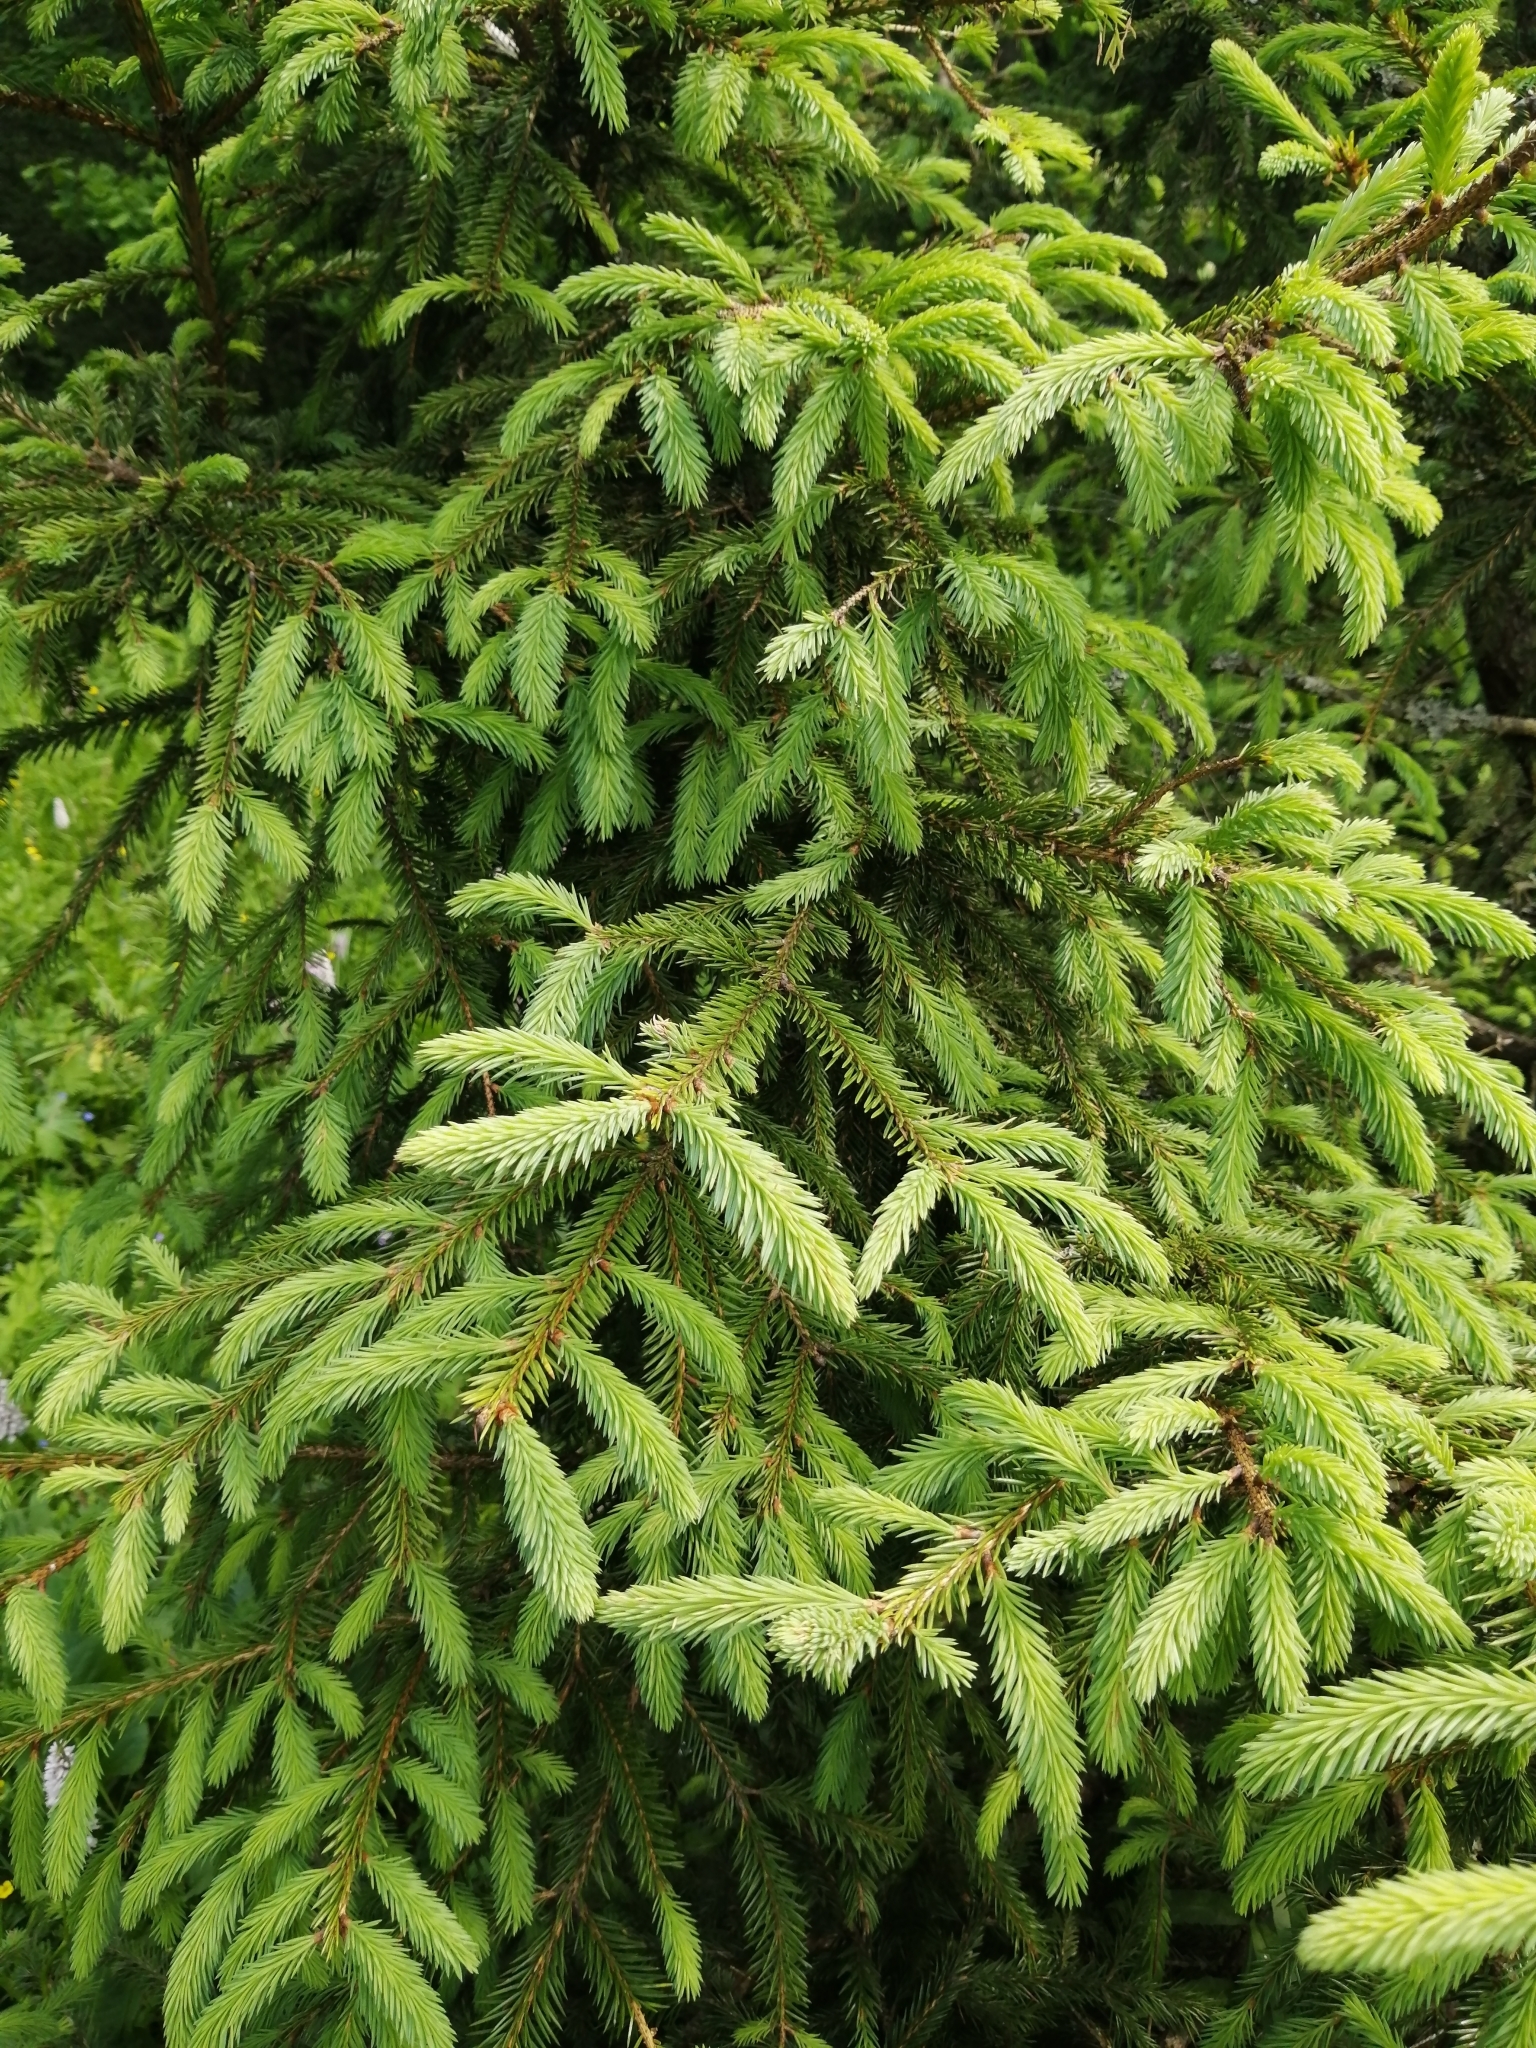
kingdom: Plantae
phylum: Tracheophyta
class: Pinopsida
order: Pinales
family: Pinaceae
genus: Picea
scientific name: Picea abies
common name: Norway spruce
